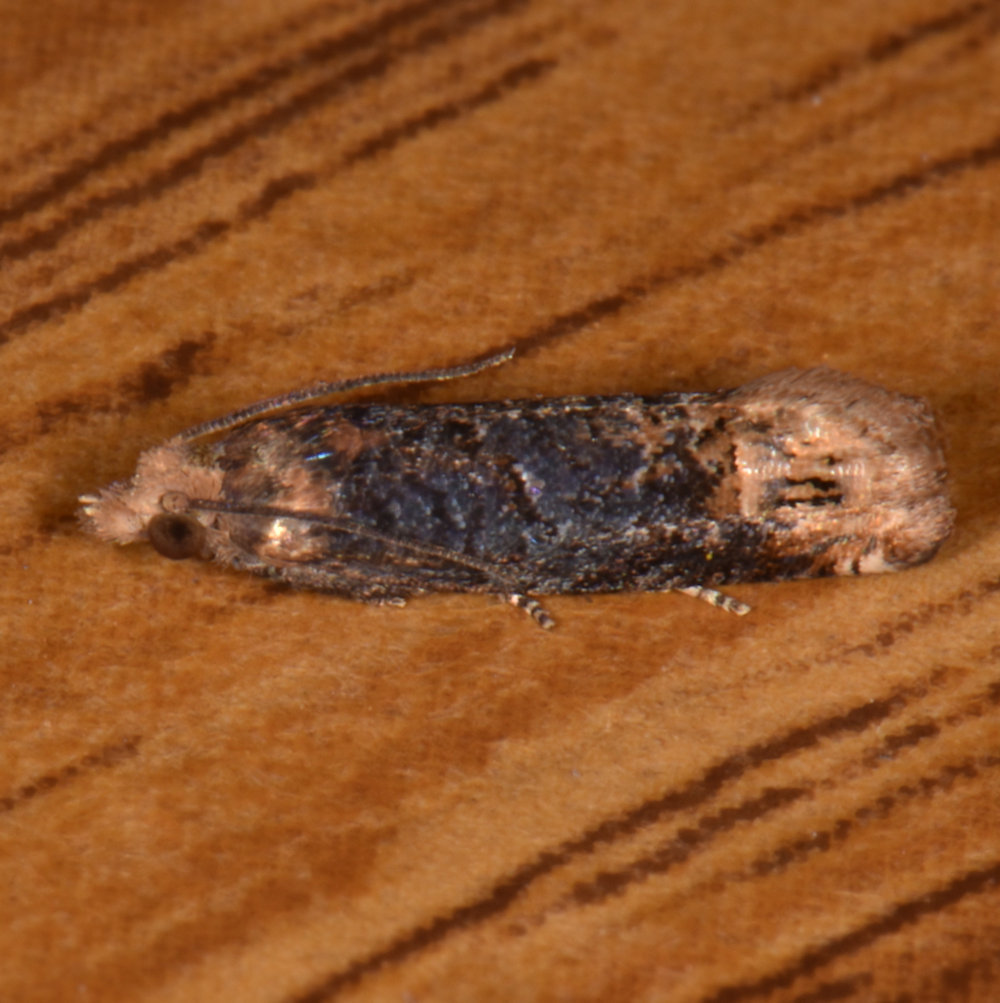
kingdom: Animalia
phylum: Arthropoda
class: Insecta
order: Lepidoptera
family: Tortricidae
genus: Eucosma
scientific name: Eucosma ochroterminana
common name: Buff-tipped eucosma moth
